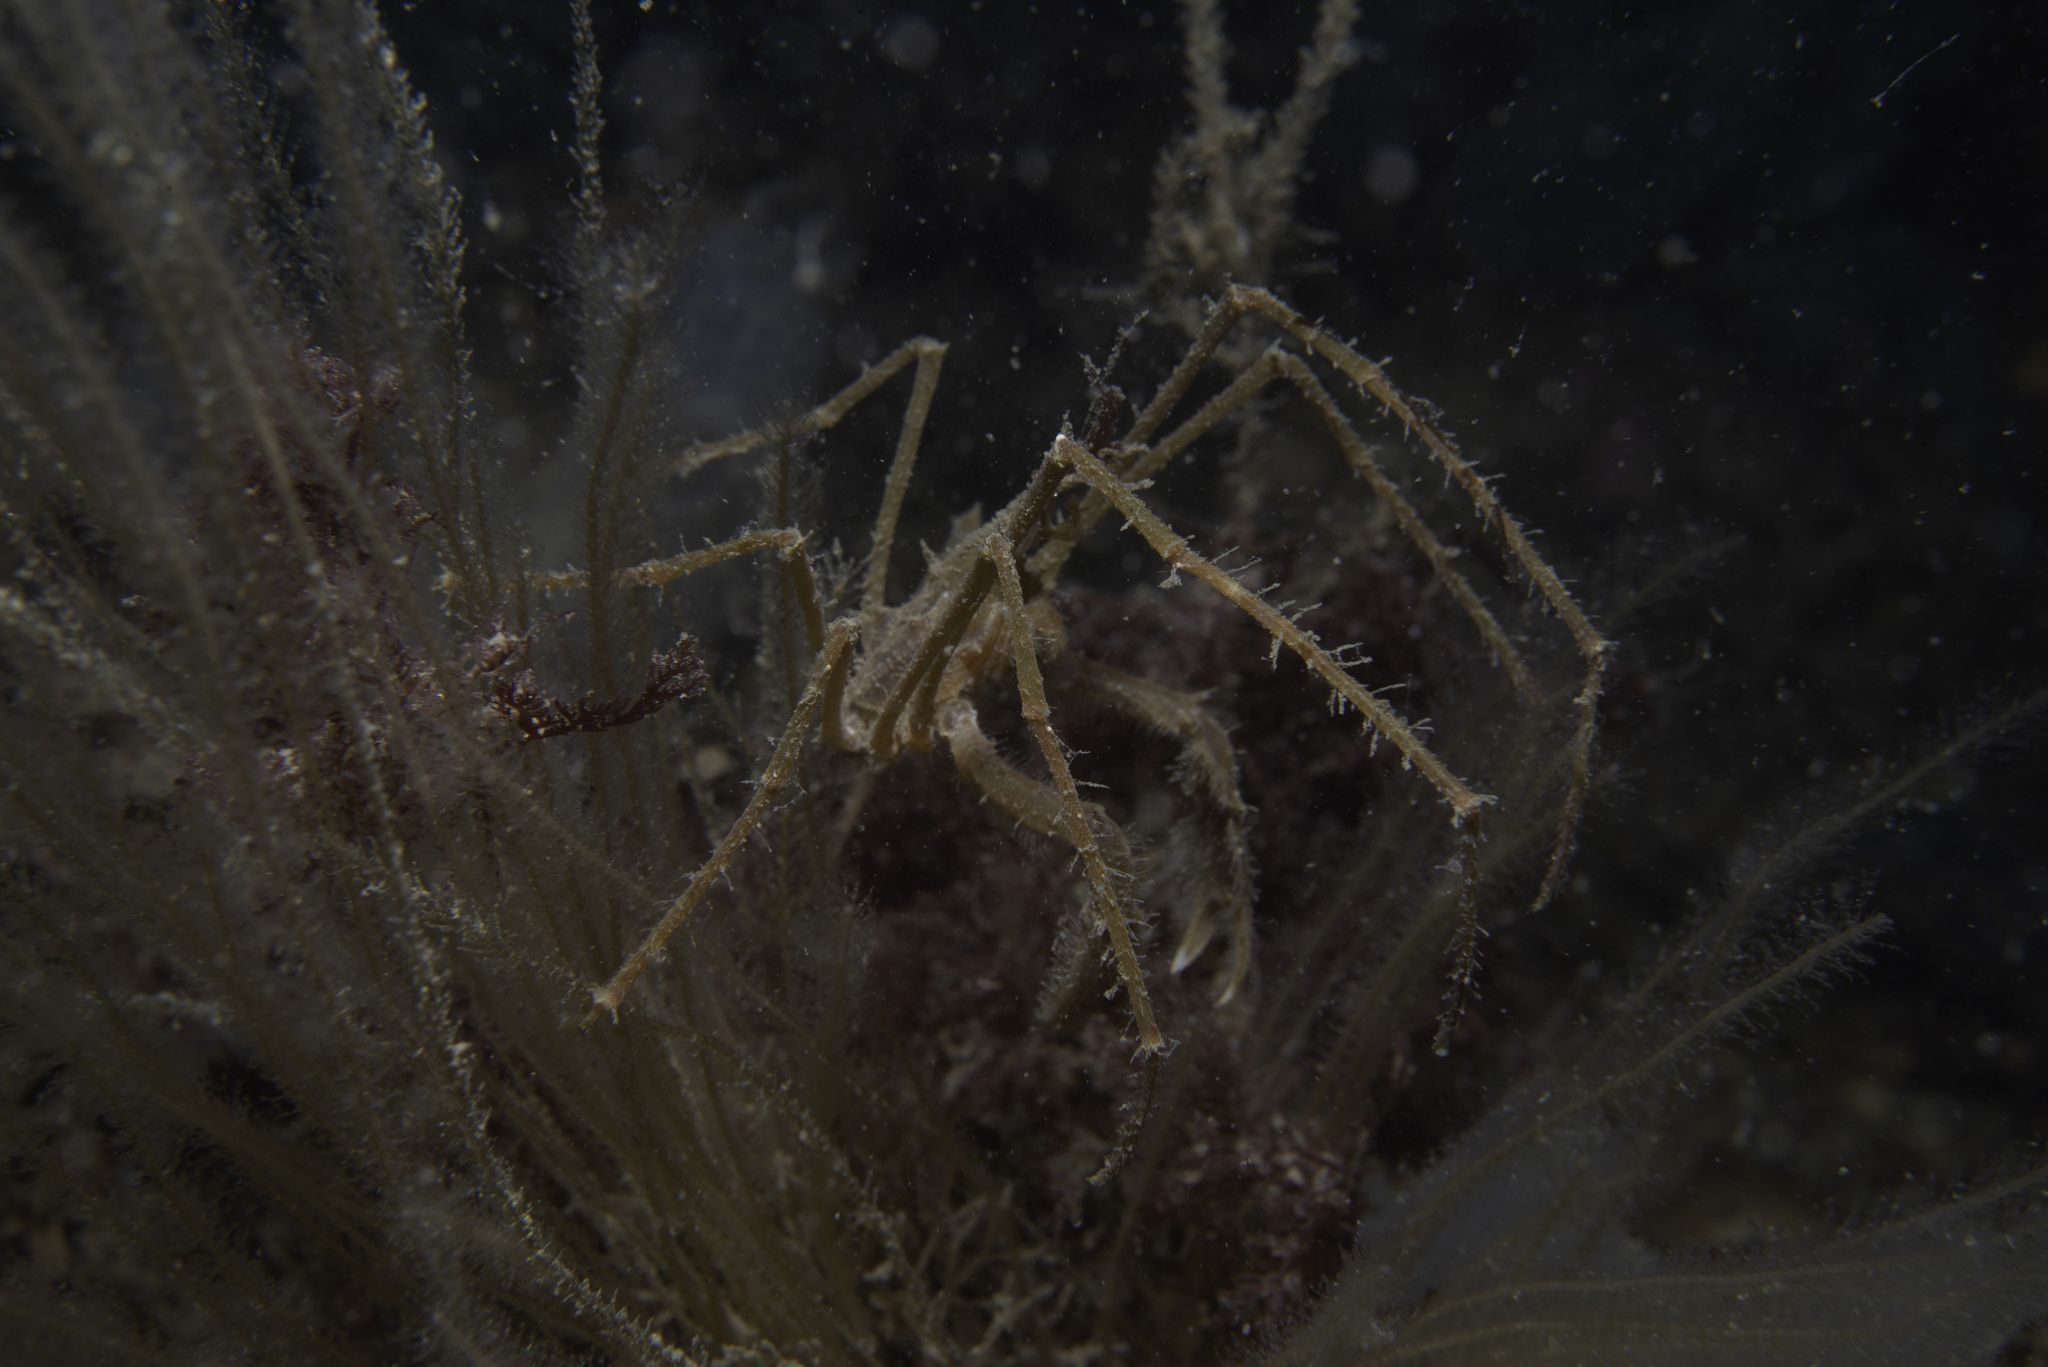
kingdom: Animalia
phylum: Arthropoda
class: Malacostraca
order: Decapoda
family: Inachidae
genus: Macropodia
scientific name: Macropodia rostrata
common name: Long-legged spider crab
